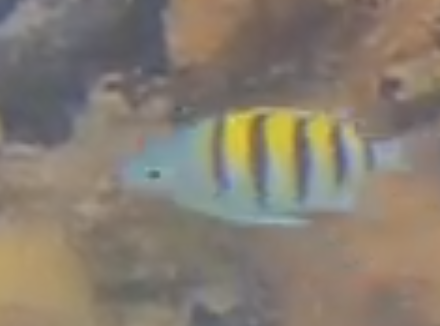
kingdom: Animalia
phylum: Chordata
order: Perciformes
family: Pomacentridae
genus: Abudefduf
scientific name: Abudefduf saxatilis
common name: Sergeant major
